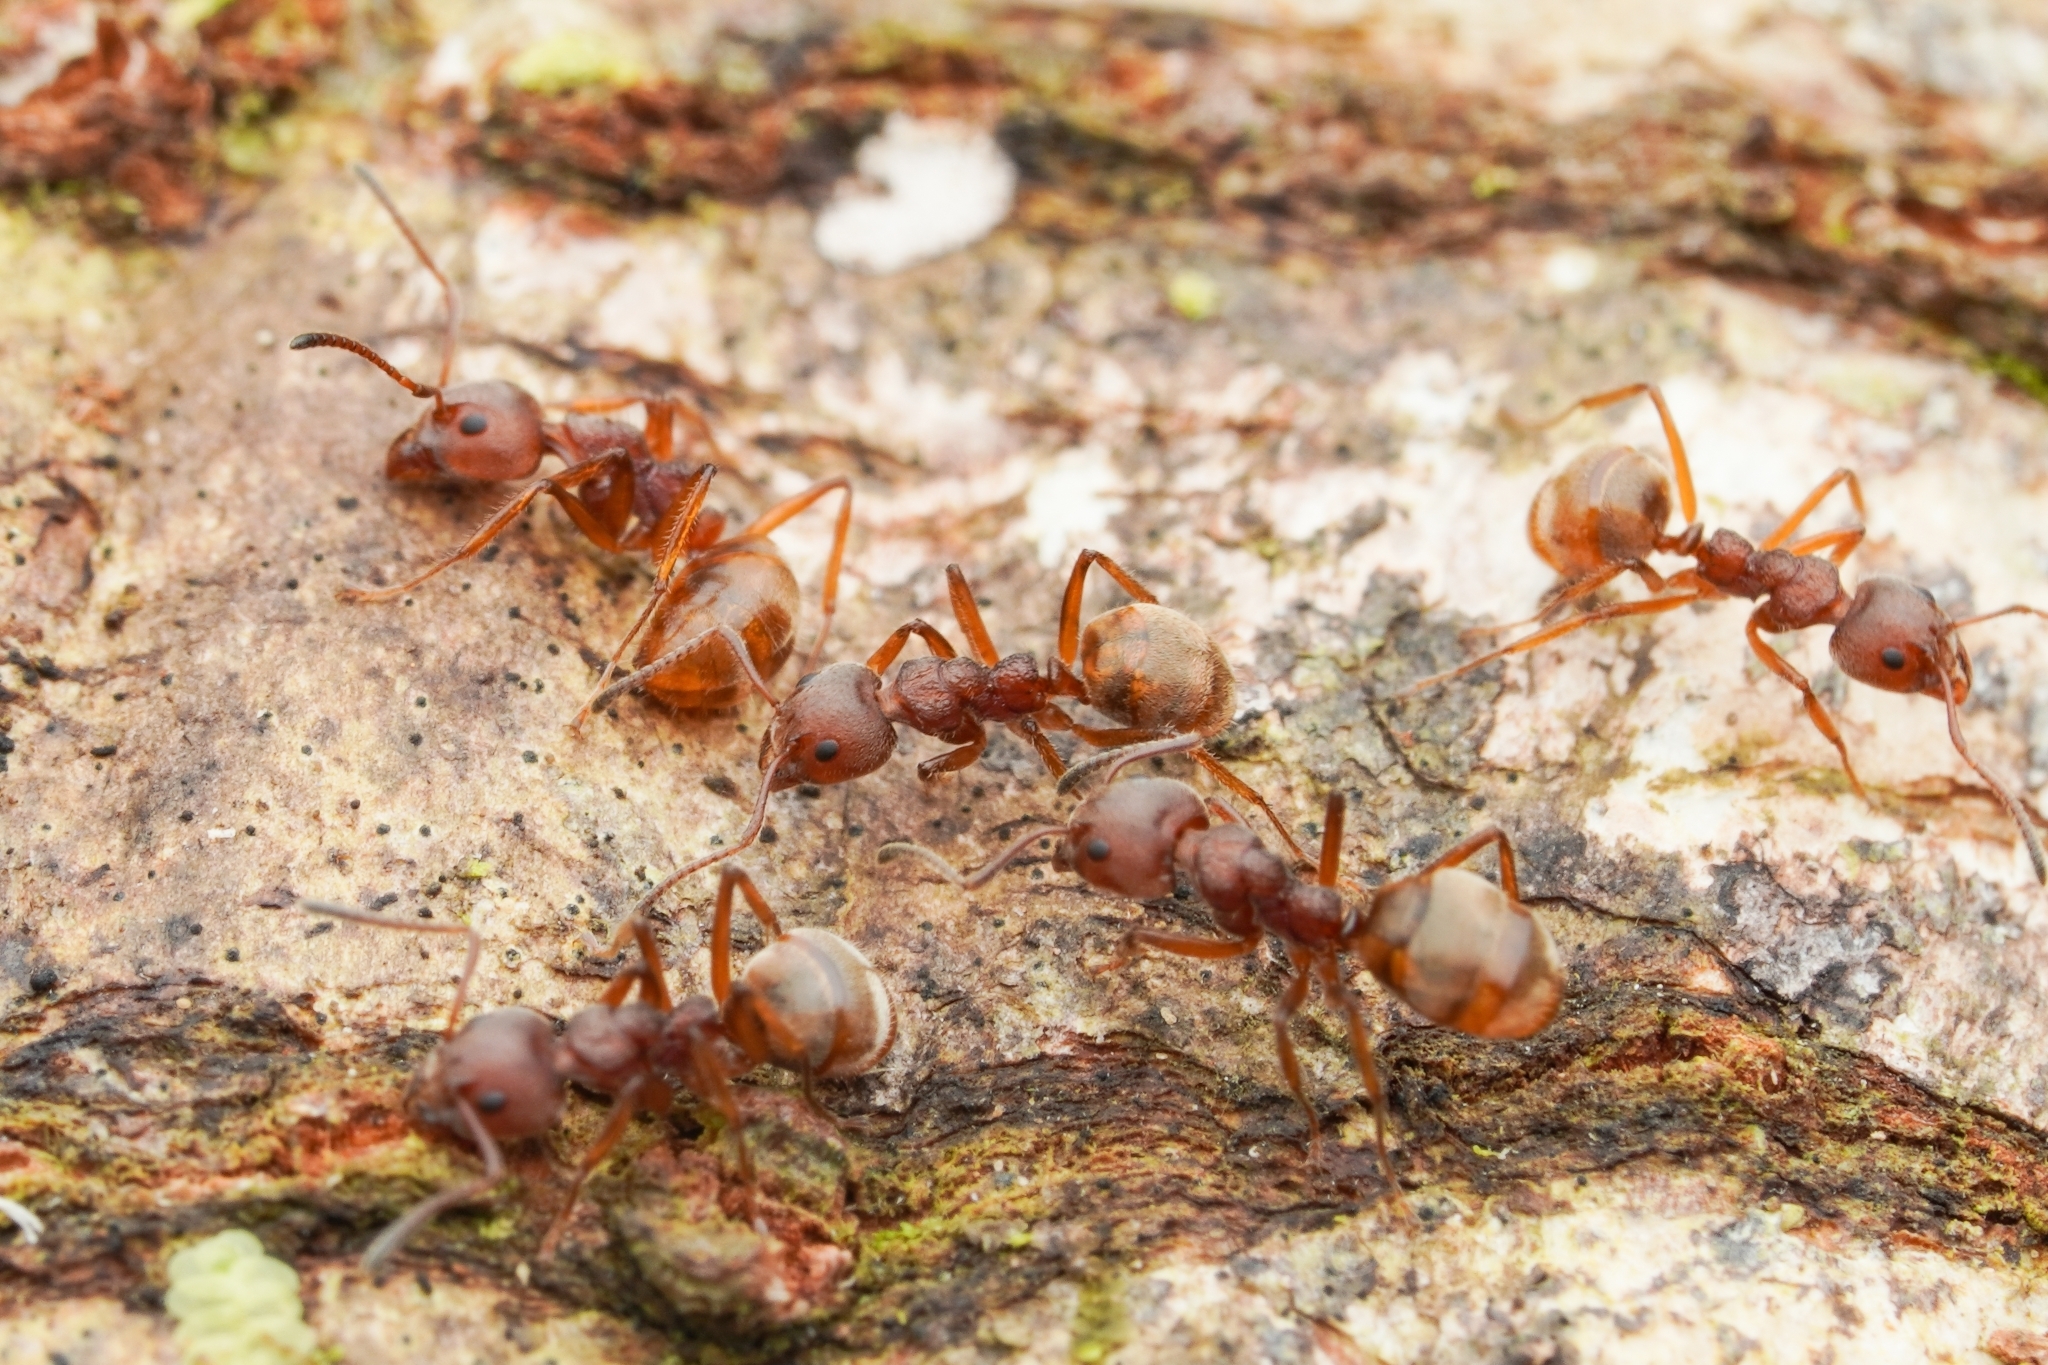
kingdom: Animalia
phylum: Arthropoda
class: Insecta
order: Hymenoptera
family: Formicidae
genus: Dolichoderus
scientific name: Dolichoderus thoracicus
